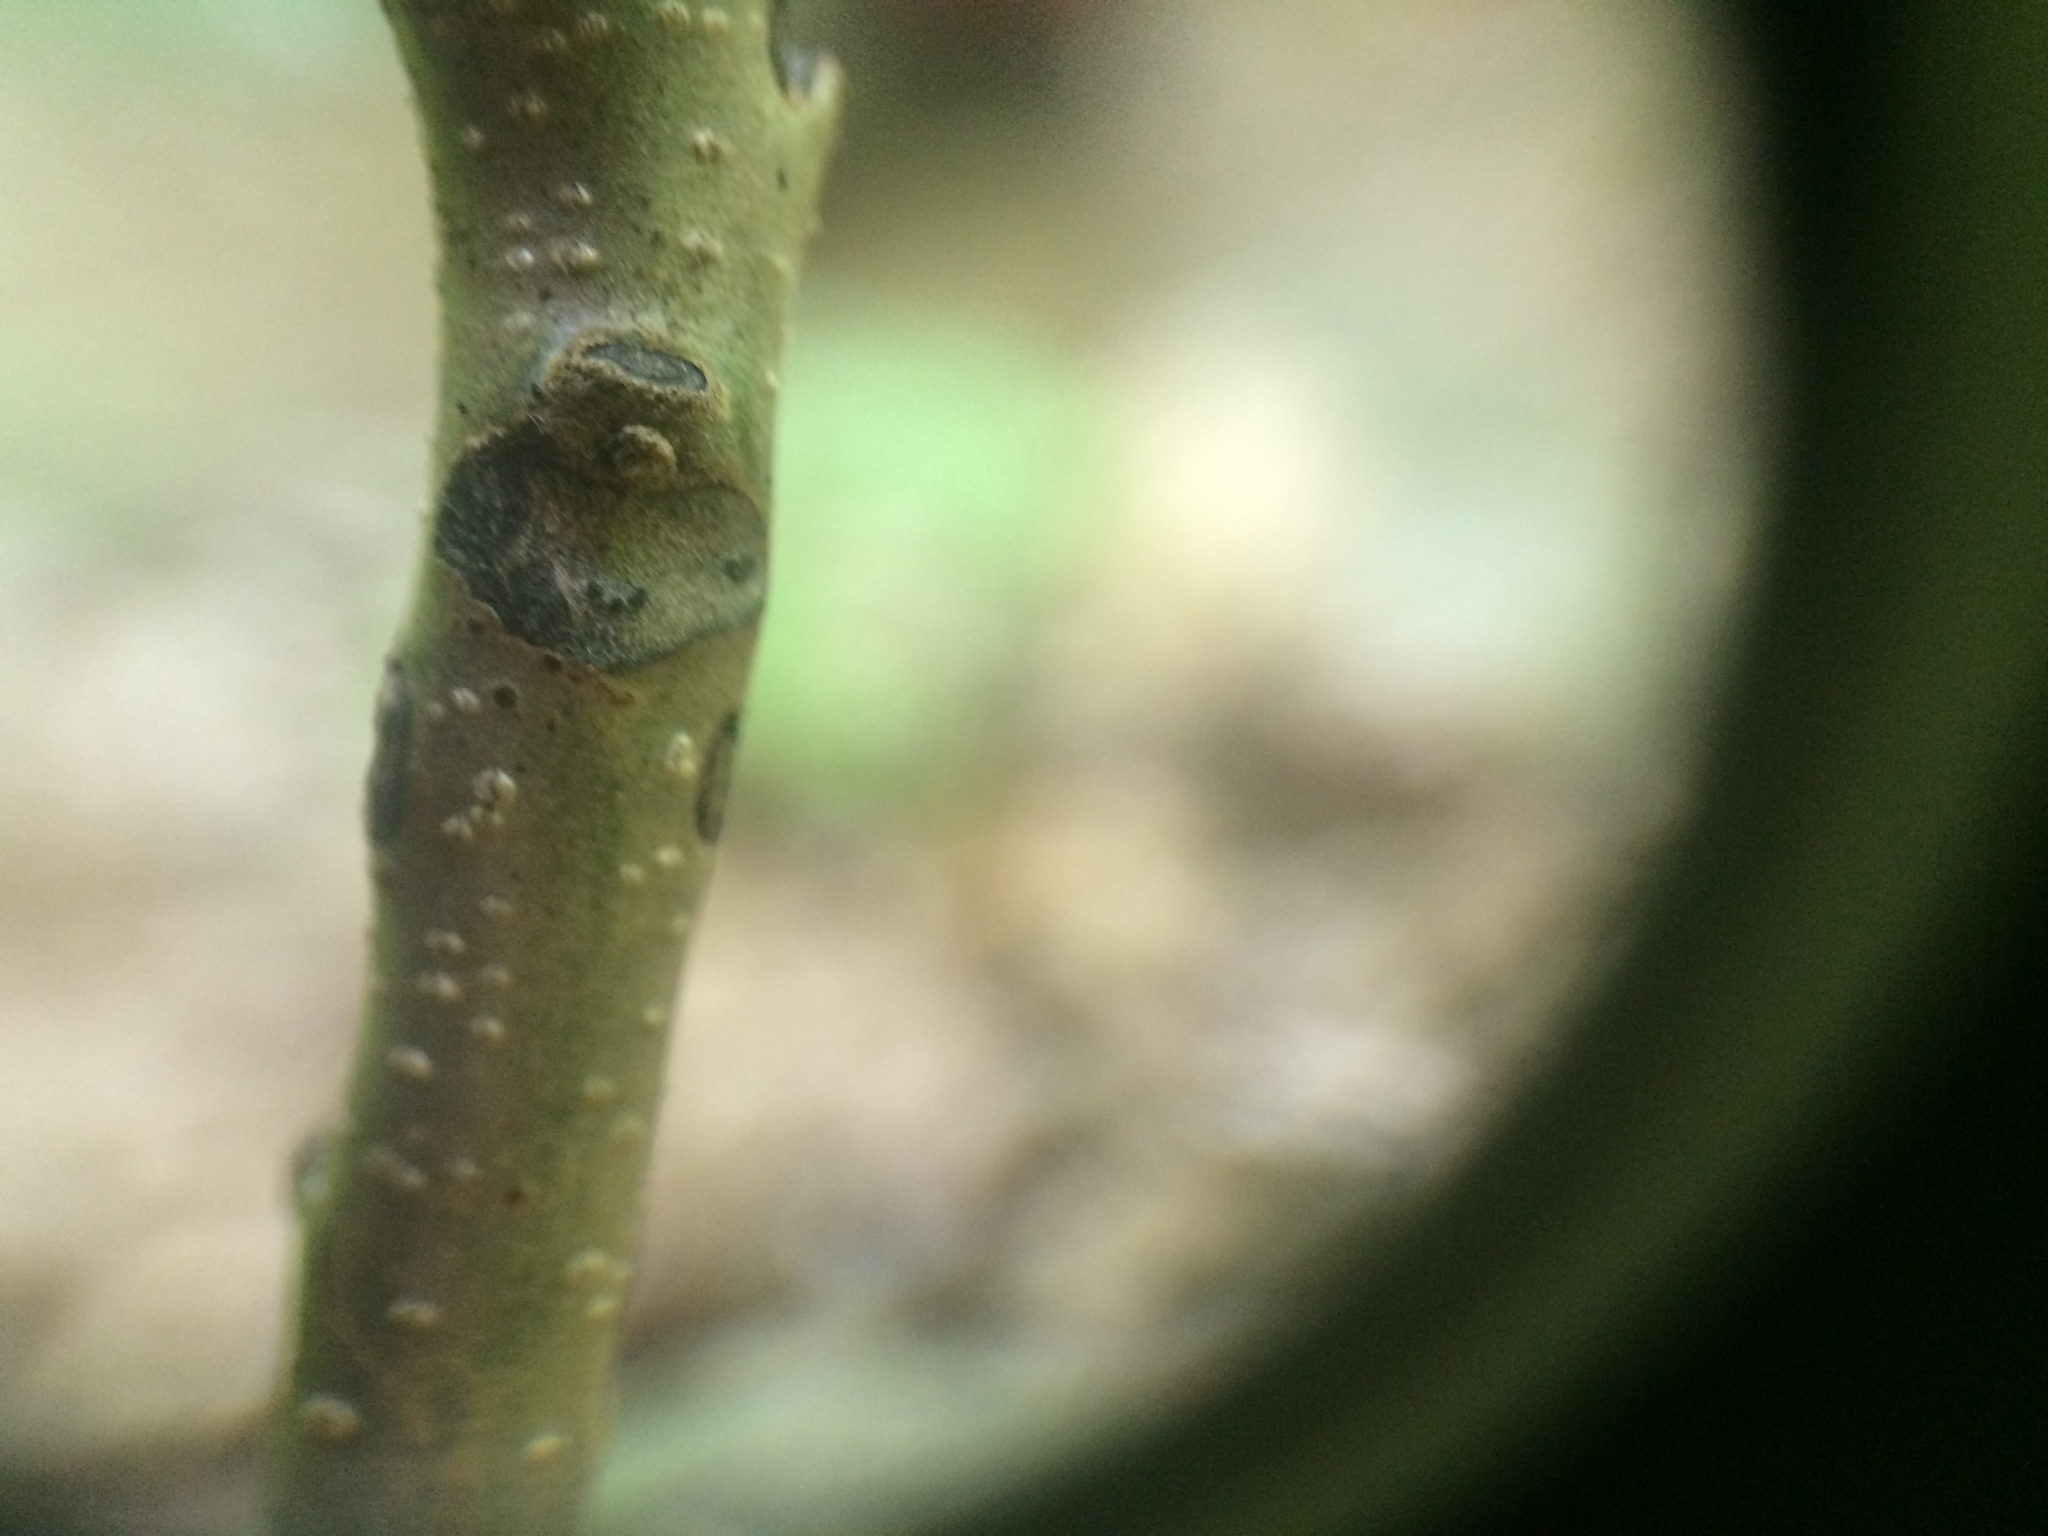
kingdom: Plantae
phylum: Tracheophyta
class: Magnoliopsida
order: Fagales
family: Juglandaceae
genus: Juglans
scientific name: Juglans cinerea
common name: Butternut
